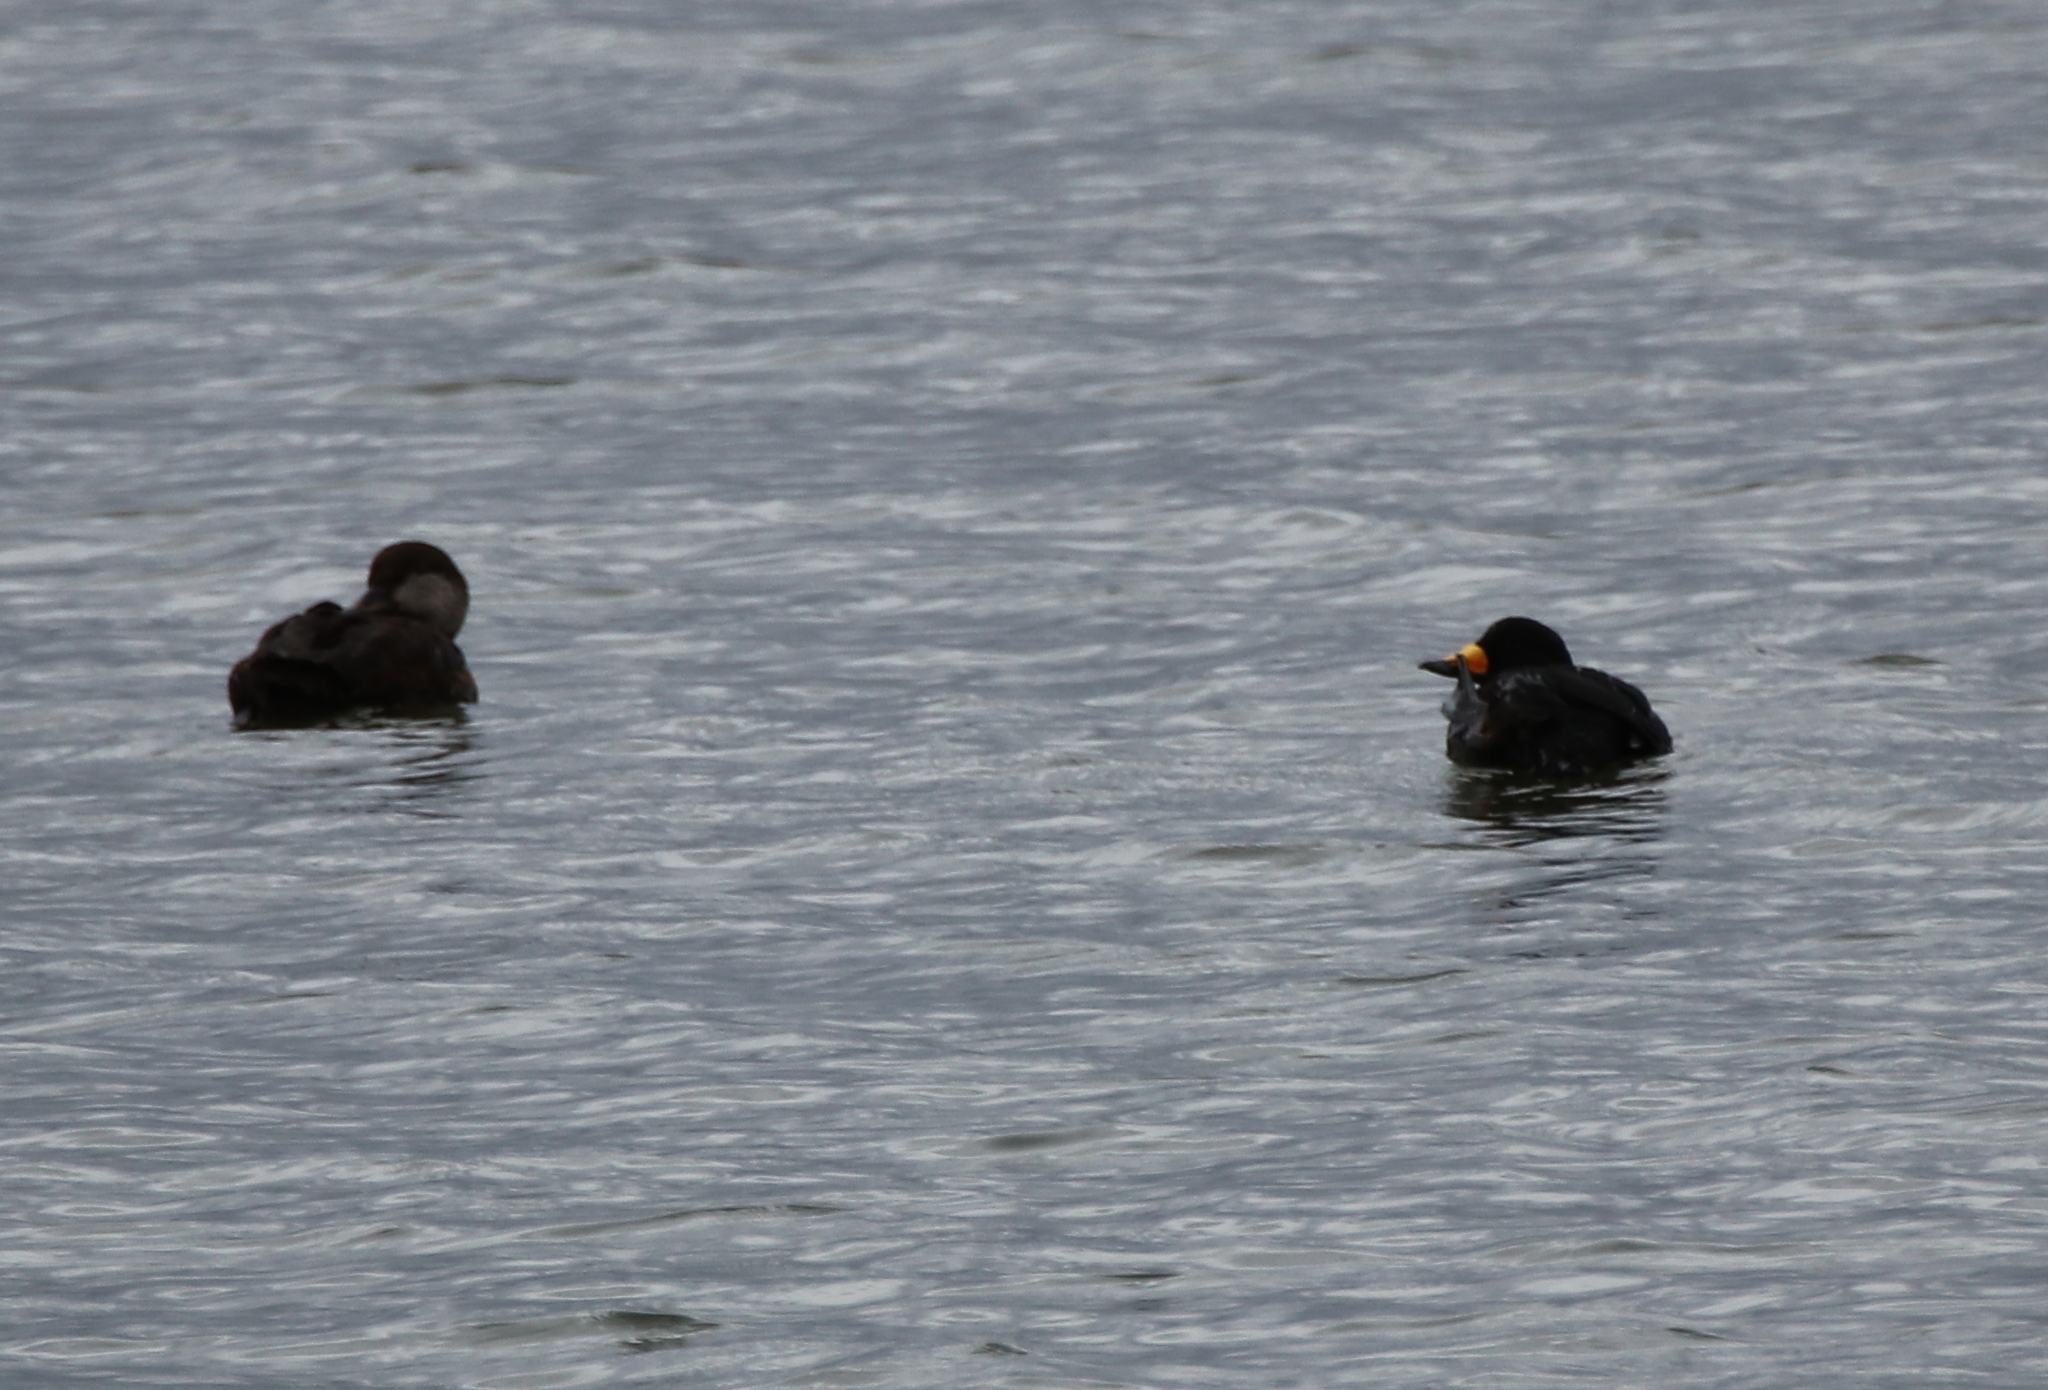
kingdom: Animalia
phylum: Chordata
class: Aves
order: Anseriformes
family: Anatidae
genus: Melanitta
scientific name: Melanitta americana
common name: Black scoter
